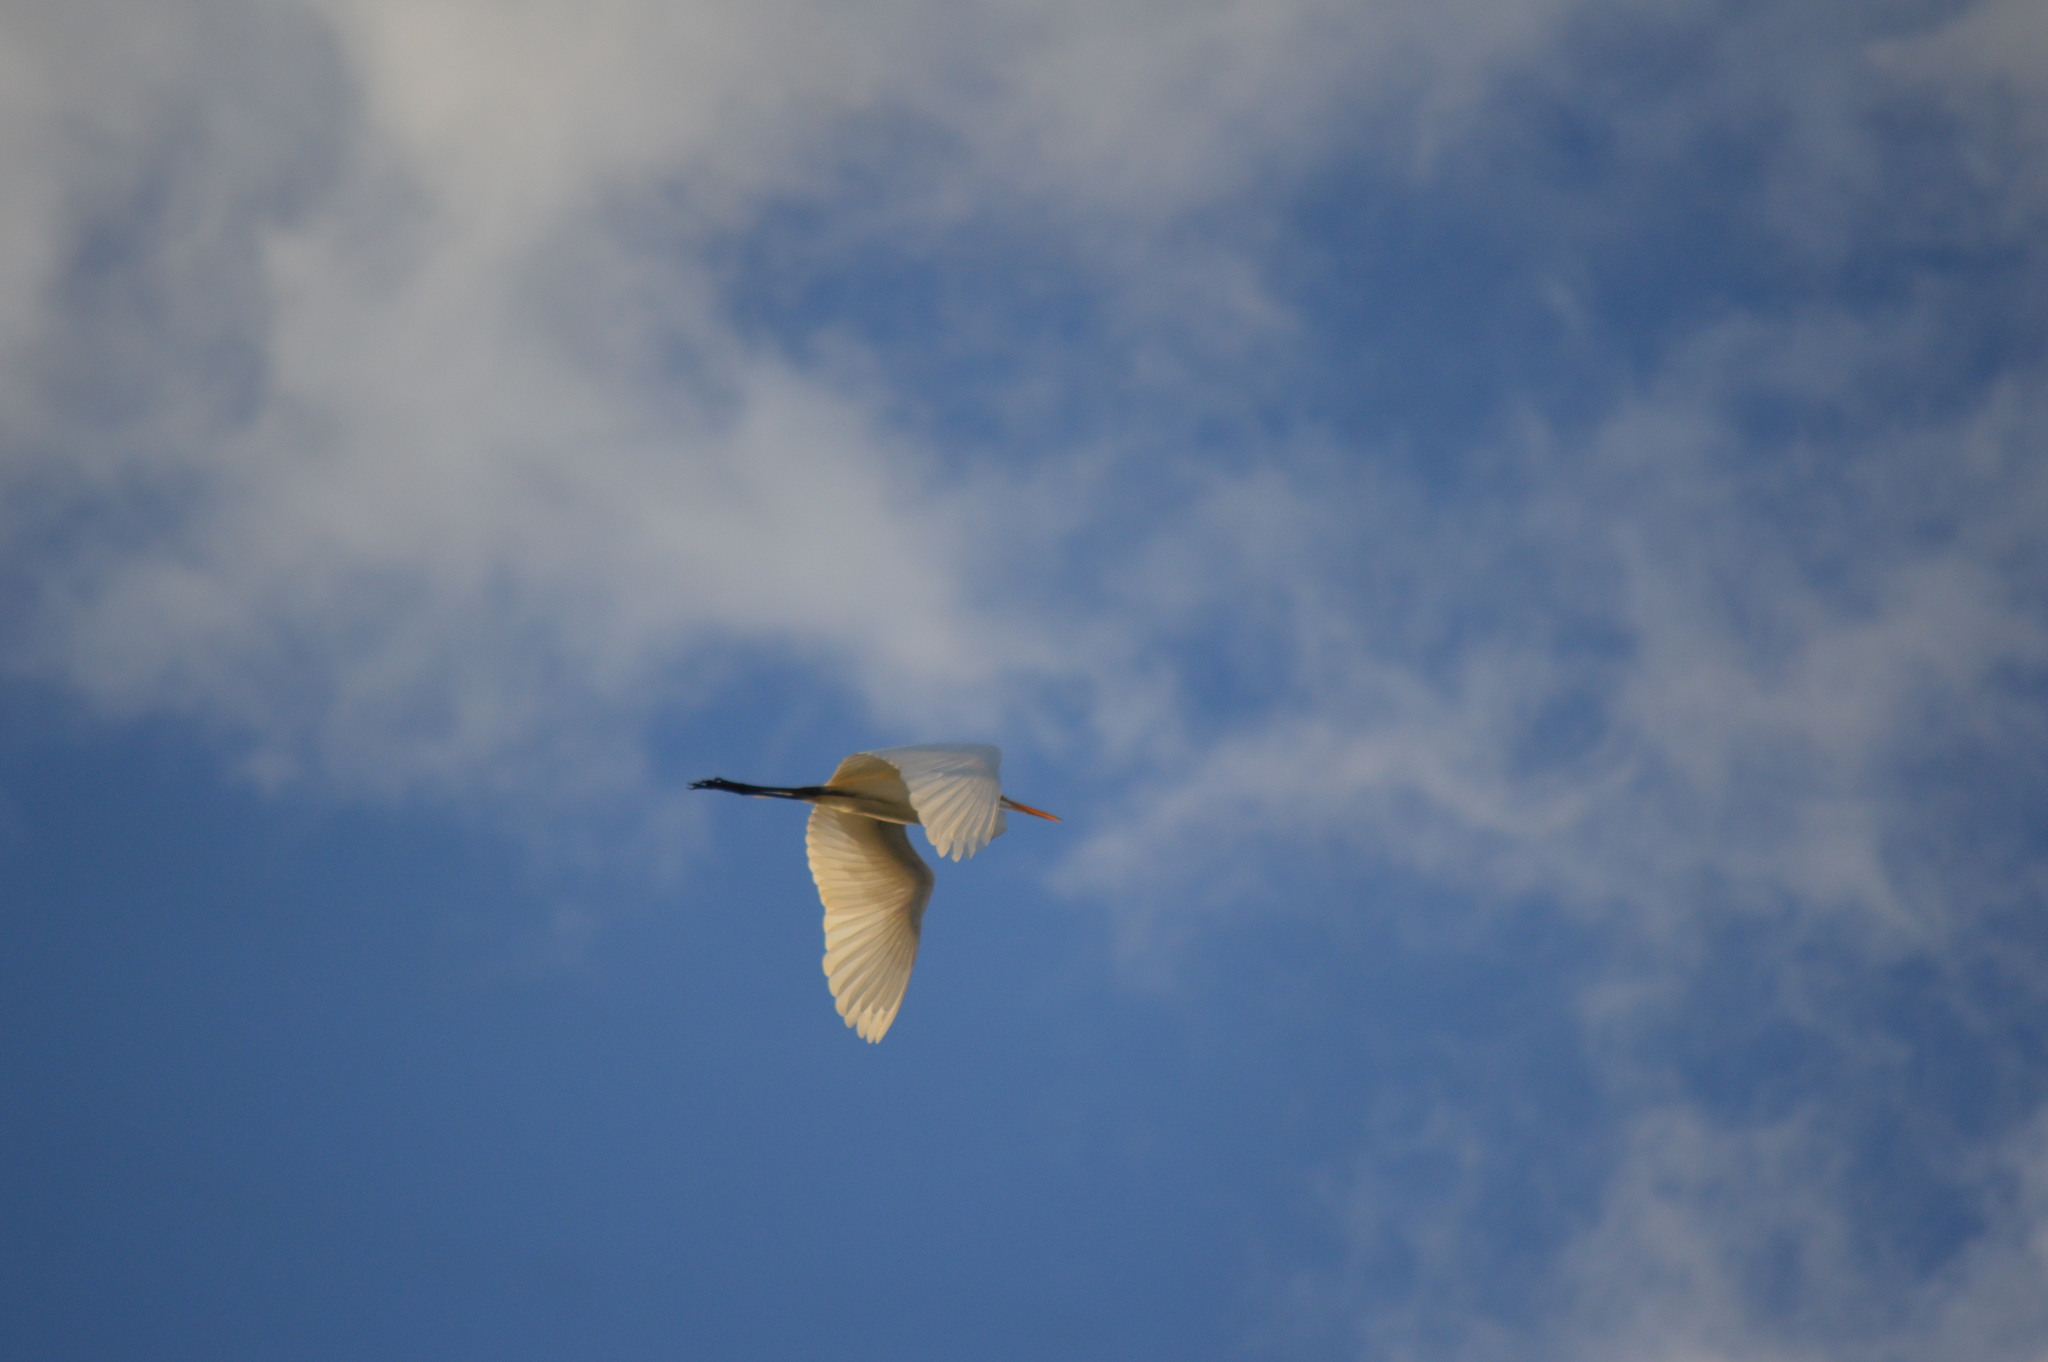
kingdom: Animalia
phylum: Chordata
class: Aves
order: Pelecaniformes
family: Ardeidae
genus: Ardea
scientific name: Ardea alba
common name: Great egret
